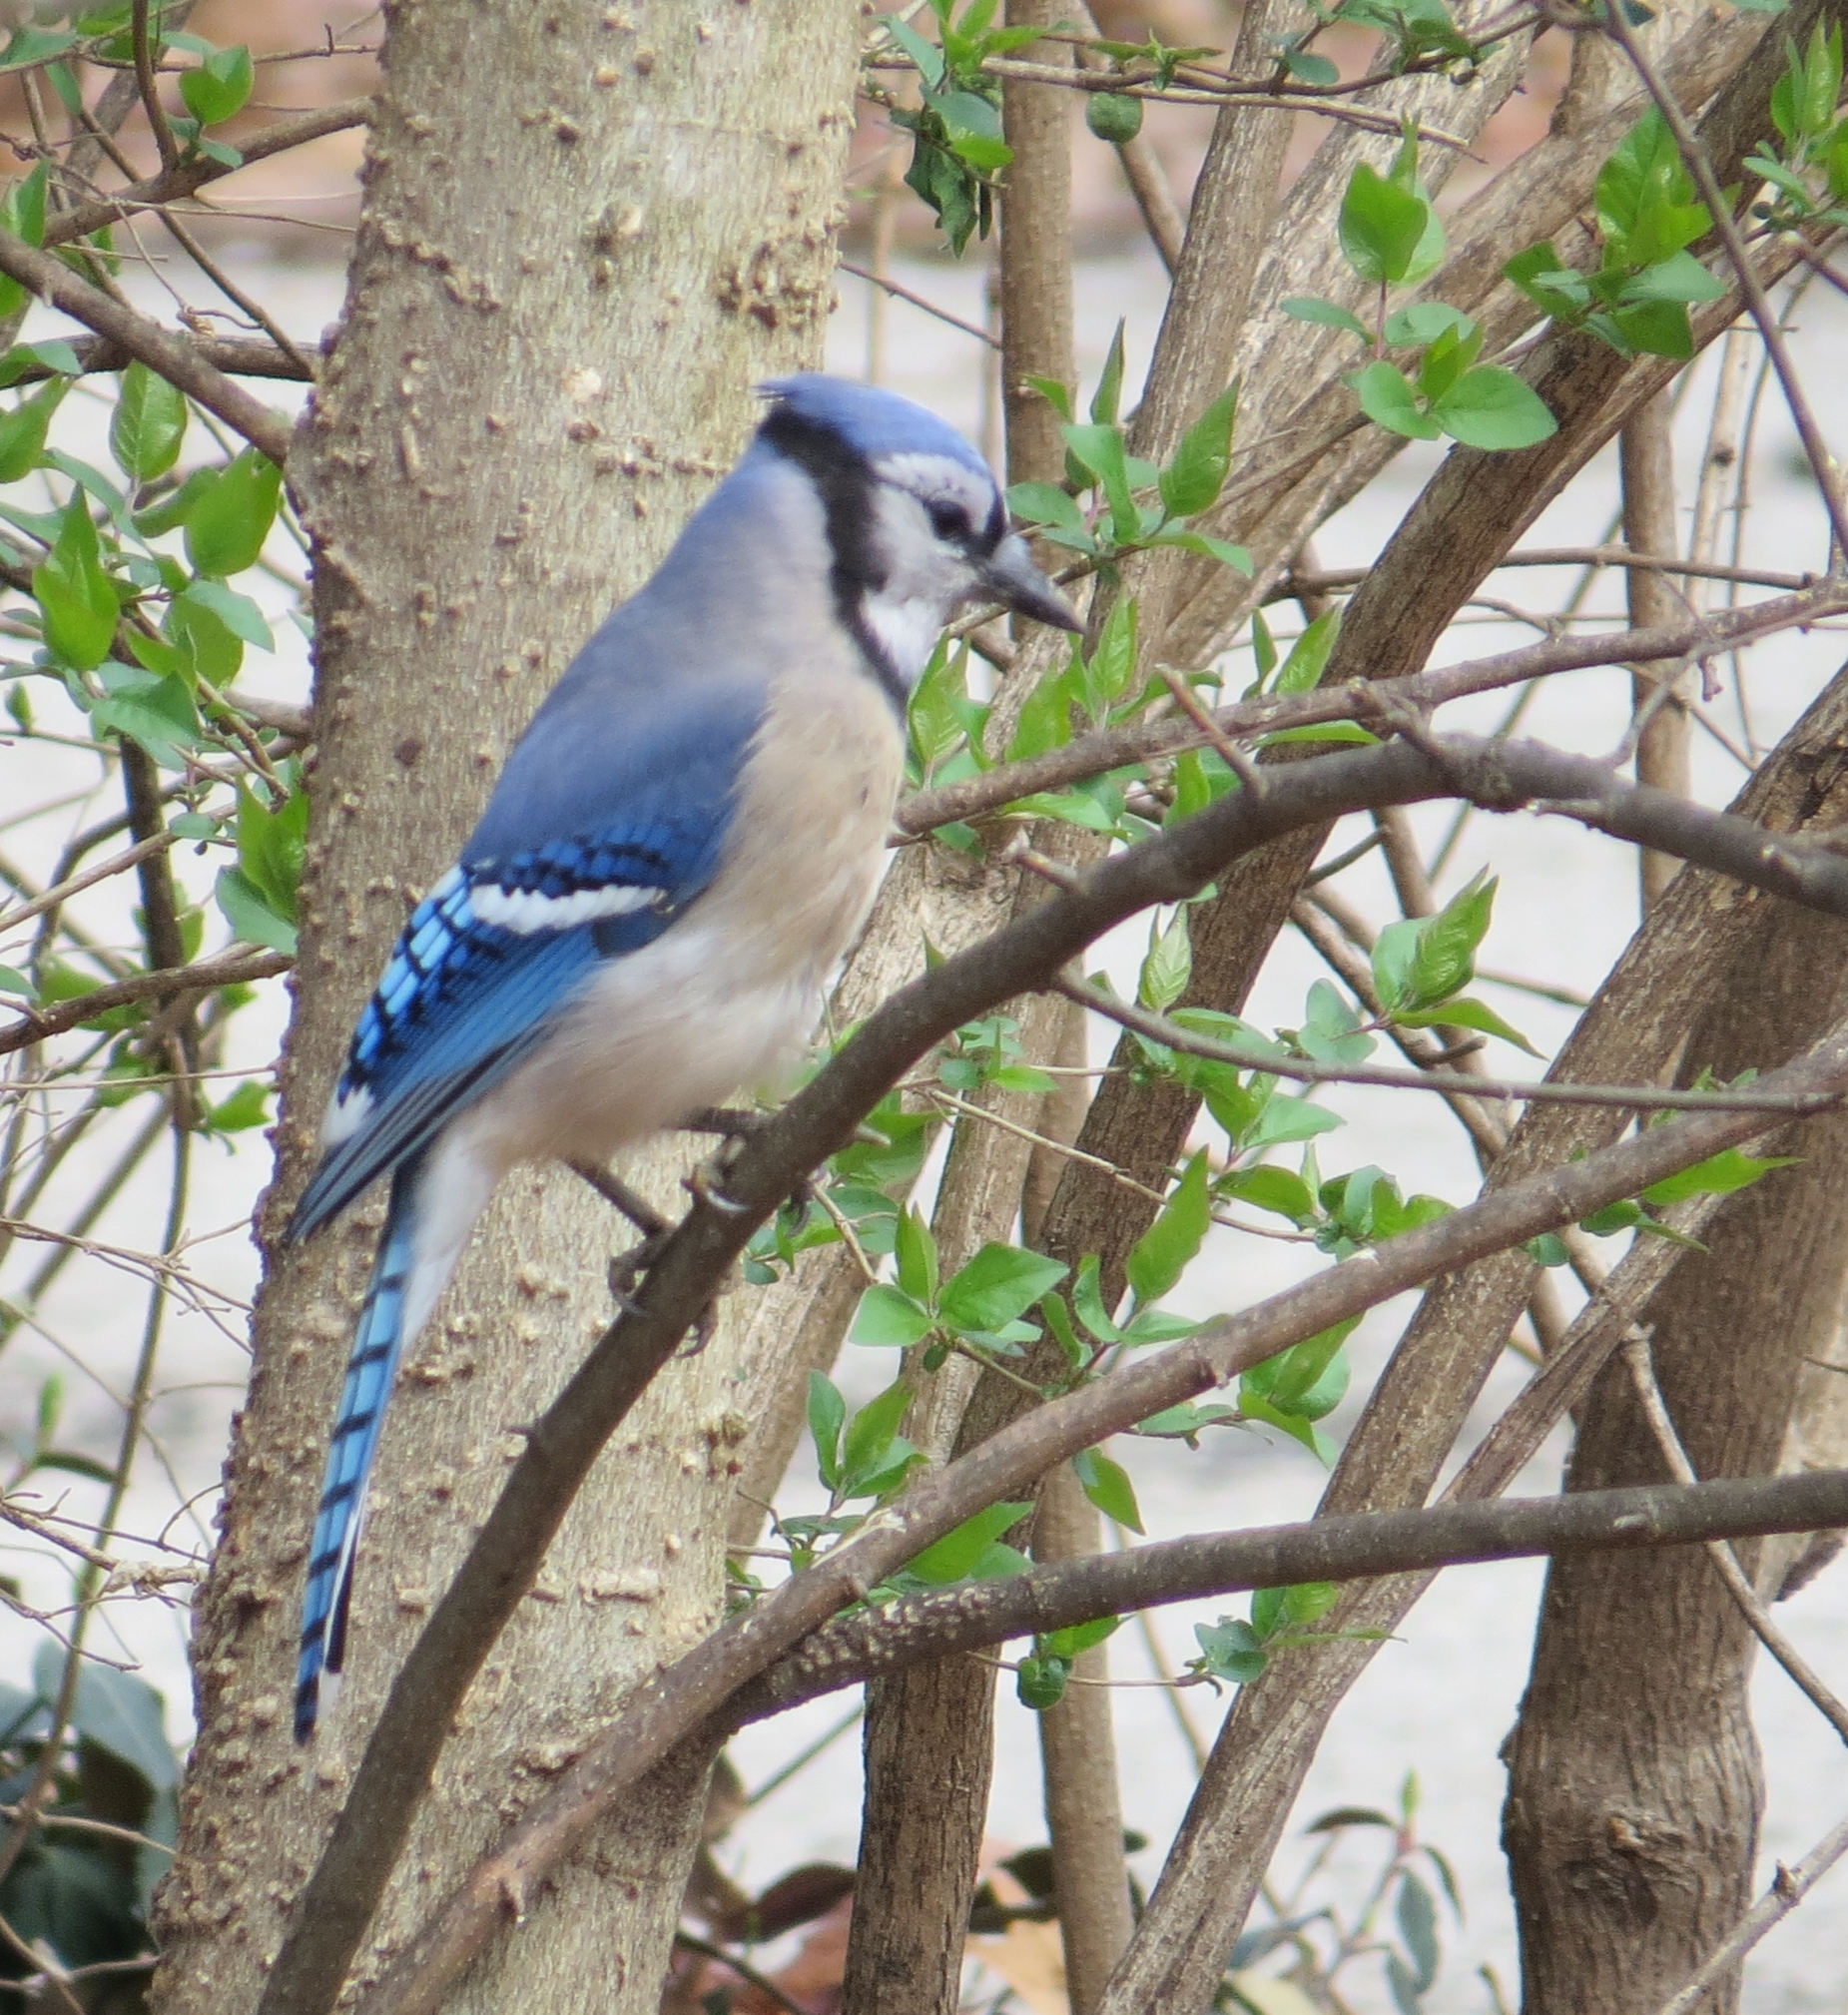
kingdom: Animalia
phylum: Chordata
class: Aves
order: Passeriformes
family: Corvidae
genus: Cyanocitta
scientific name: Cyanocitta cristata
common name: Blue jay
